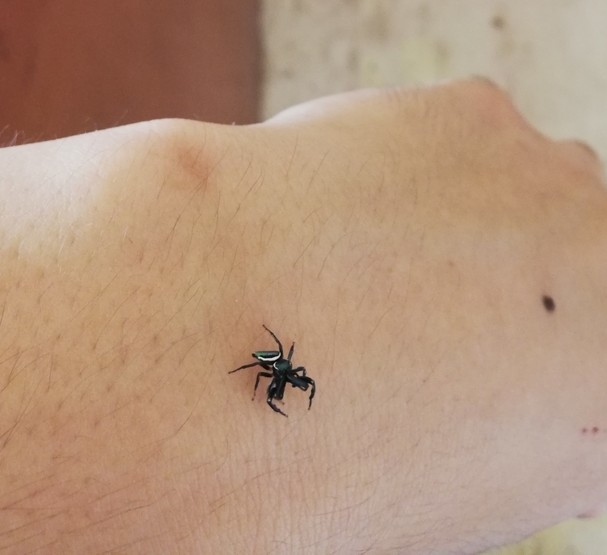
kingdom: Animalia
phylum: Arthropoda
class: Arachnida
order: Araneae
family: Salticidae
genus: Messua
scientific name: Messua limbata
